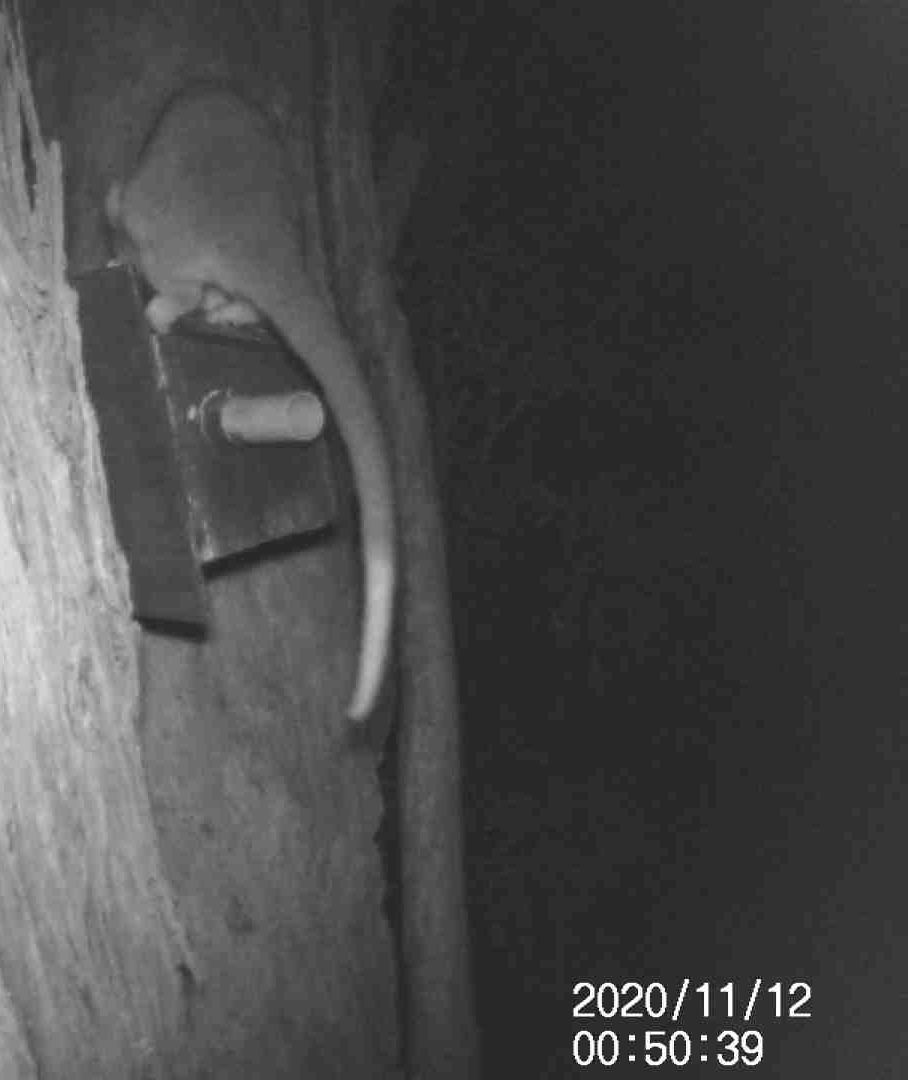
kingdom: Animalia
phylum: Chordata
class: Mammalia
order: Diprotodontia
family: Pseudocheiridae
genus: Pseudocheirus
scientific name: Pseudocheirus peregrinus
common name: Common ringtail possum
